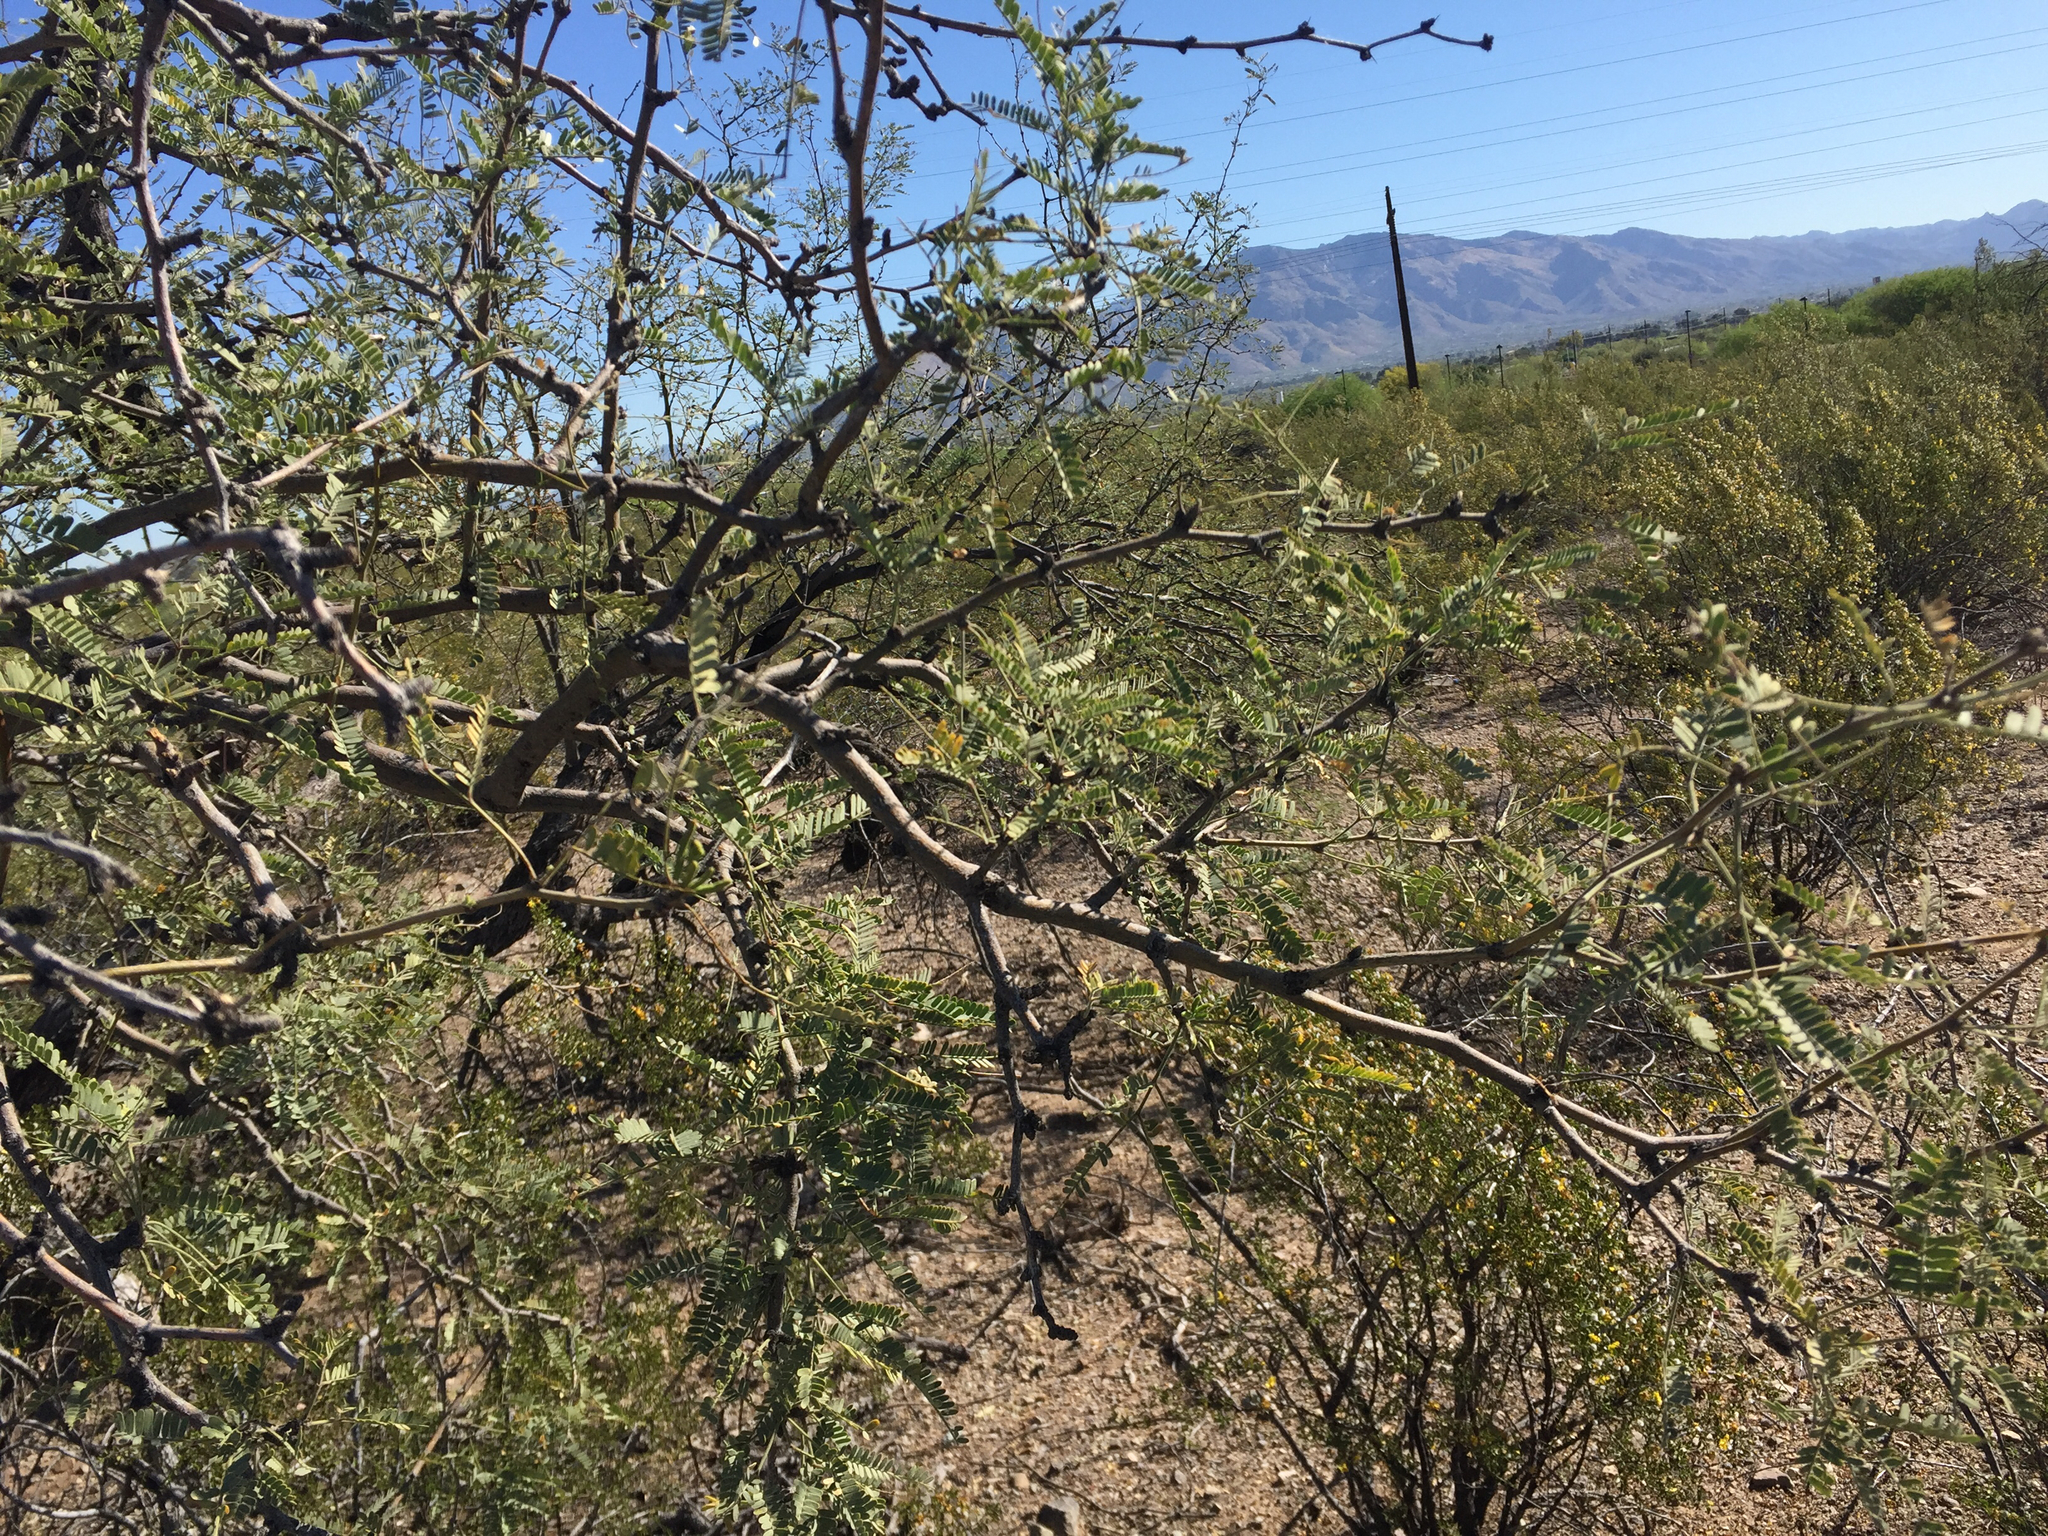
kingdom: Plantae
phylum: Tracheophyta
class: Magnoliopsida
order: Fabales
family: Fabaceae
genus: Prosopis
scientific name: Prosopis velutina
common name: Velvet mesquite
